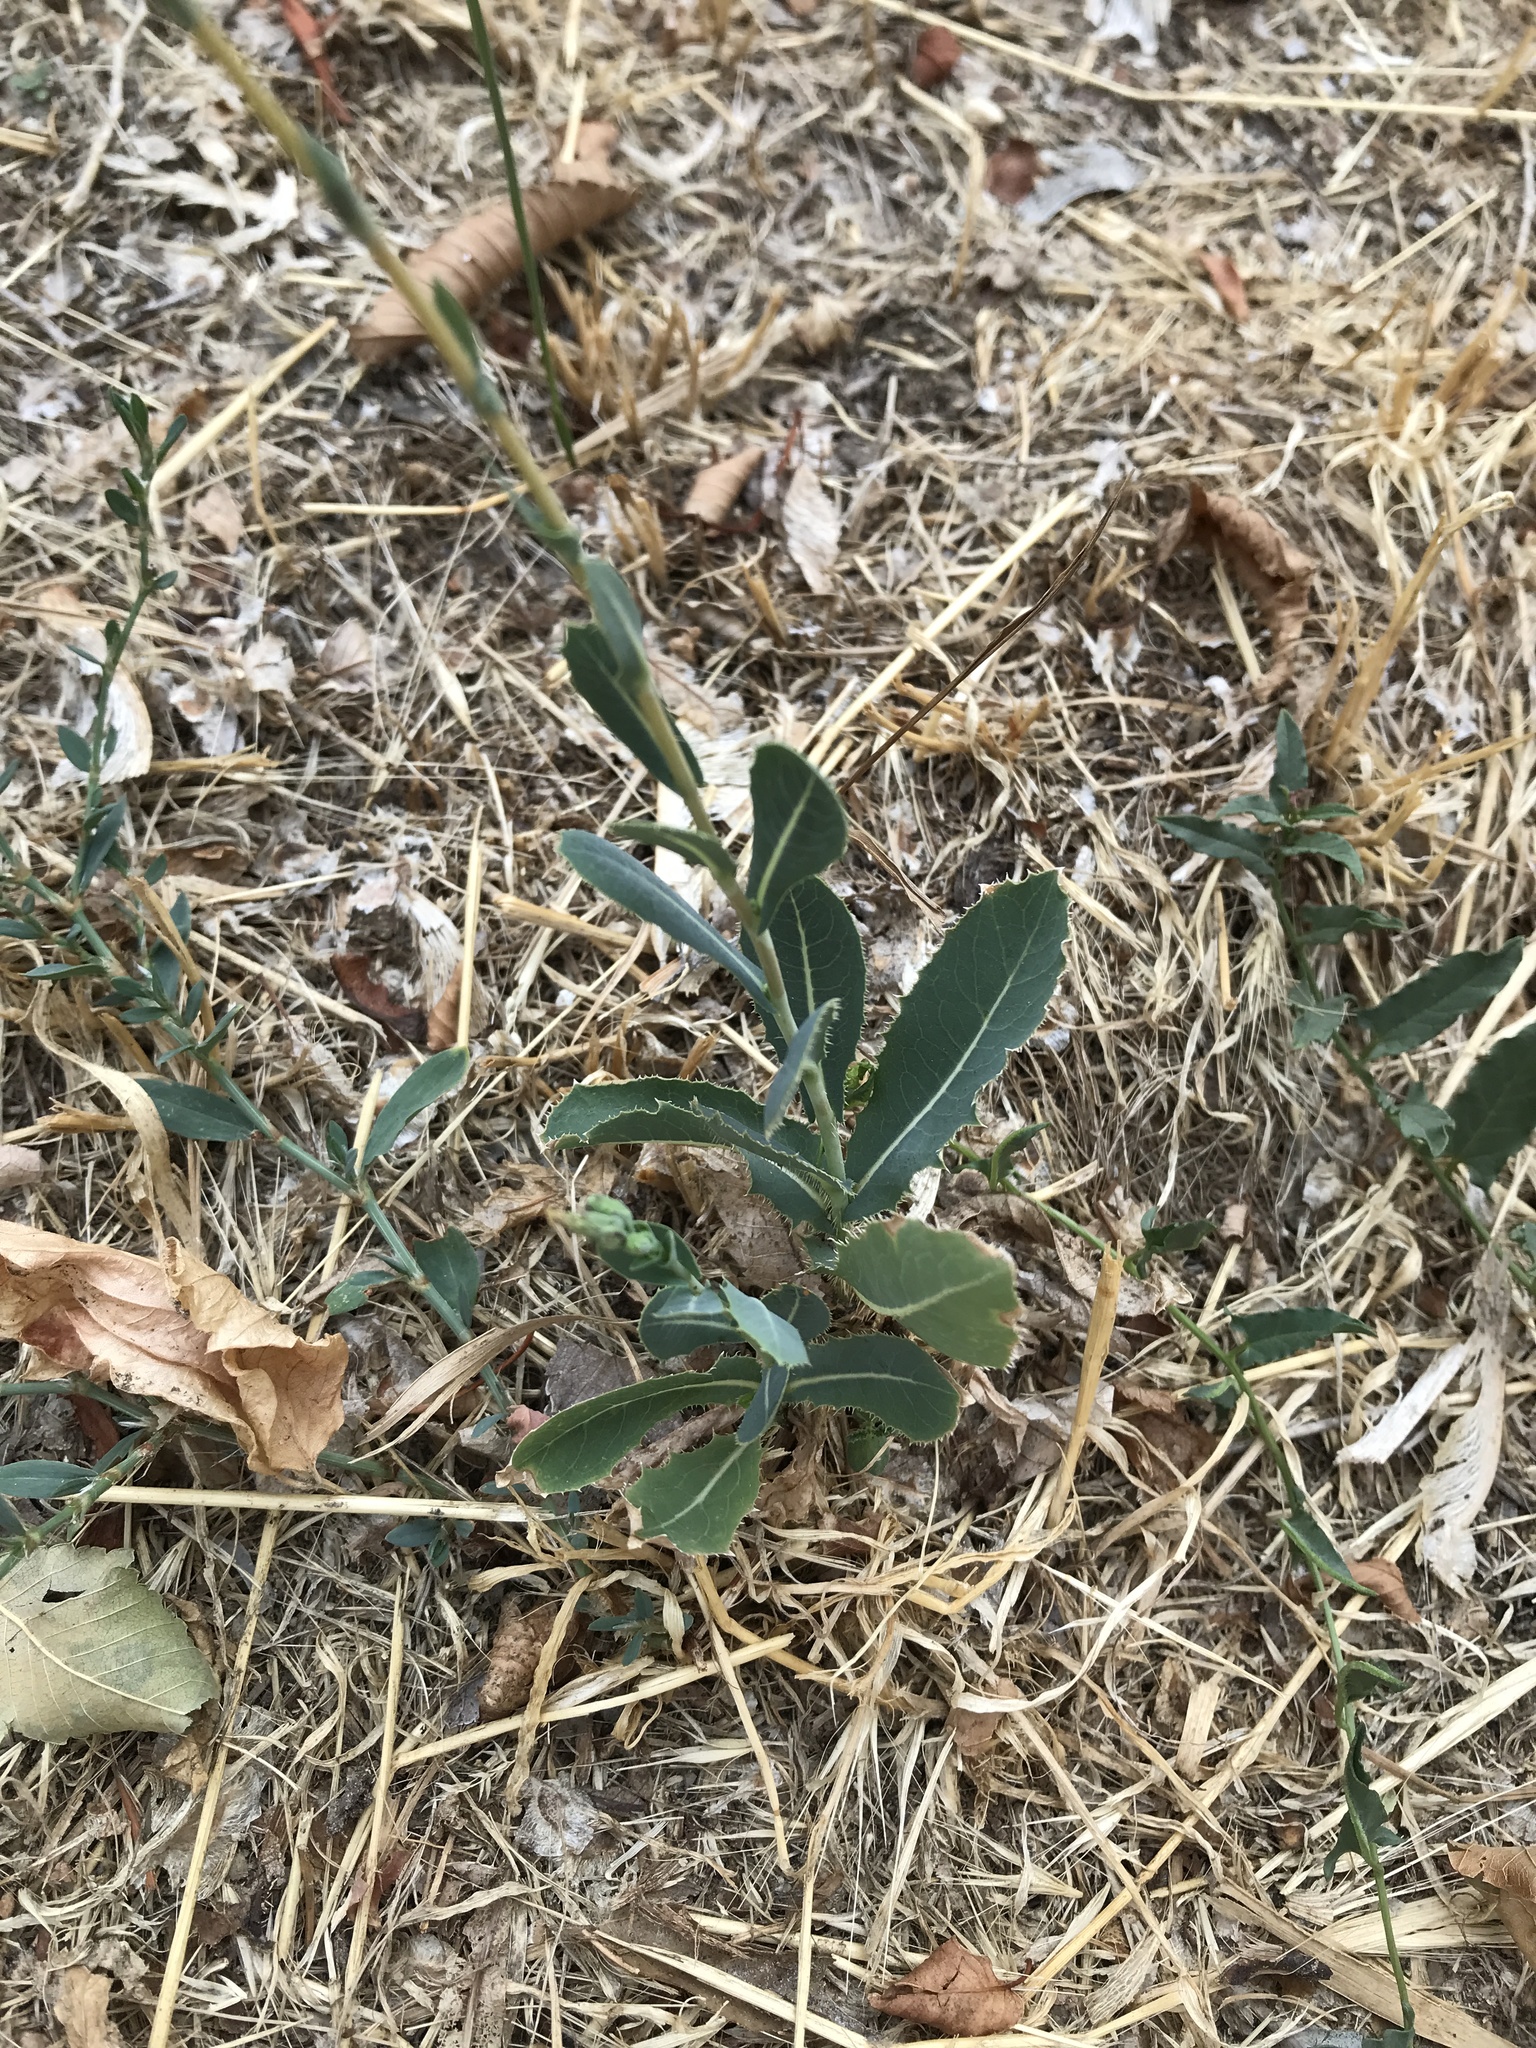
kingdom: Plantae
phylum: Tracheophyta
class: Magnoliopsida
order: Asterales
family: Asteraceae
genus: Lactuca
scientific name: Lactuca serriola
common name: Prickly lettuce
